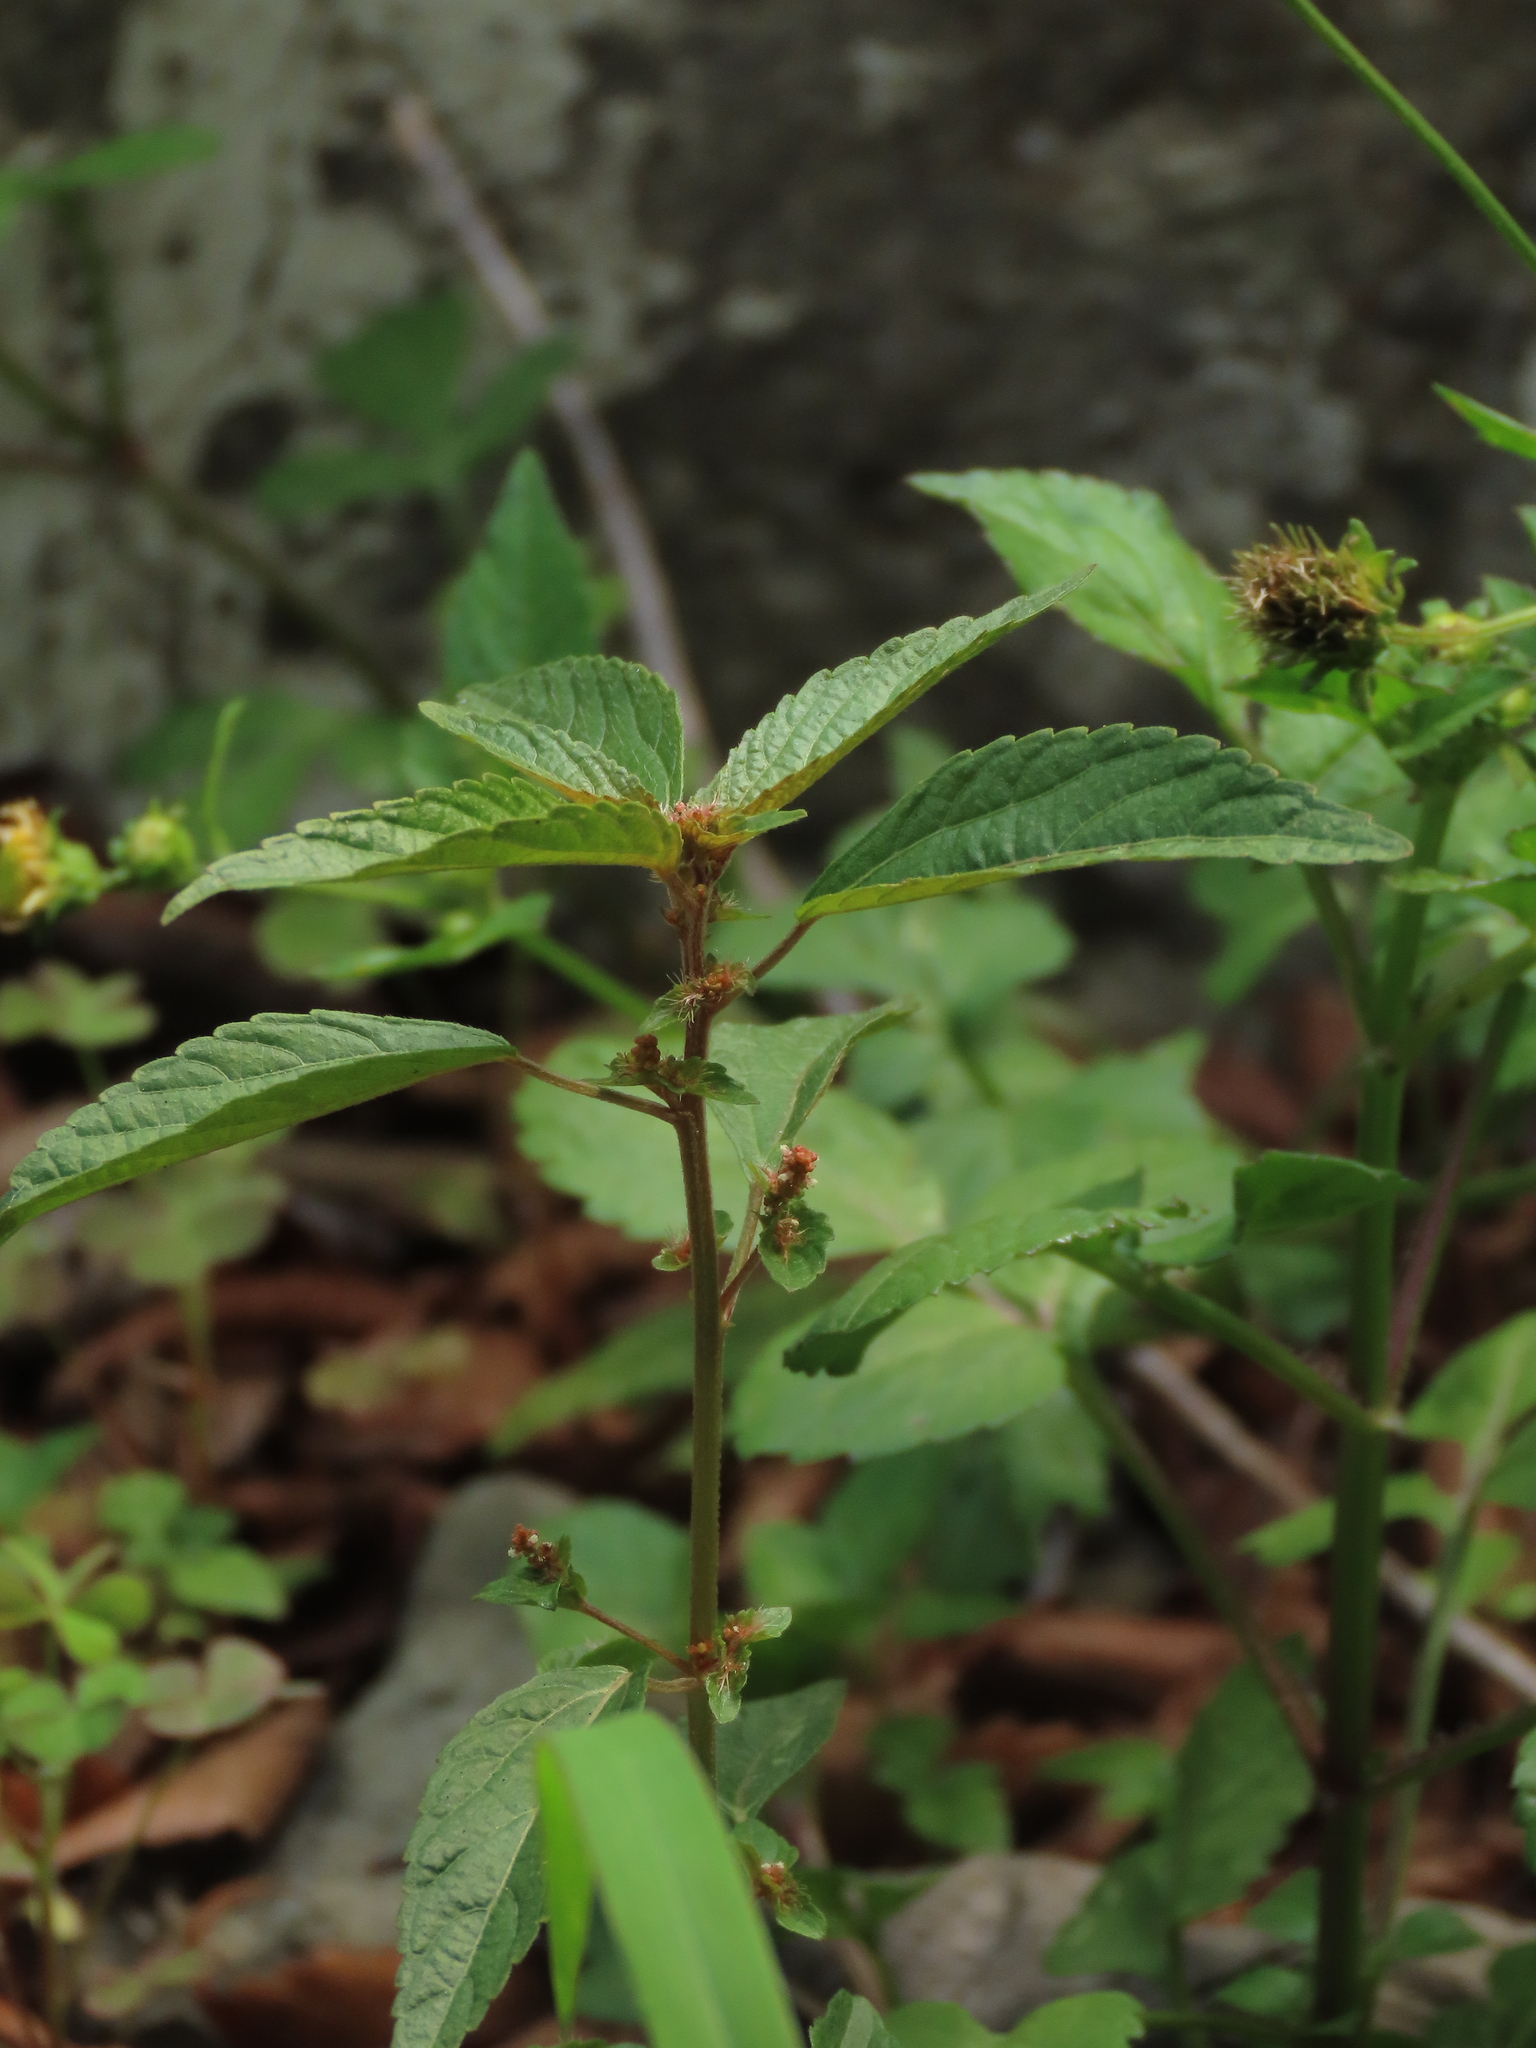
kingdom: Plantae
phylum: Tracheophyta
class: Magnoliopsida
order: Malpighiales
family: Euphorbiaceae
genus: Acalypha
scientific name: Acalypha australis
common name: Asian copperleaf
